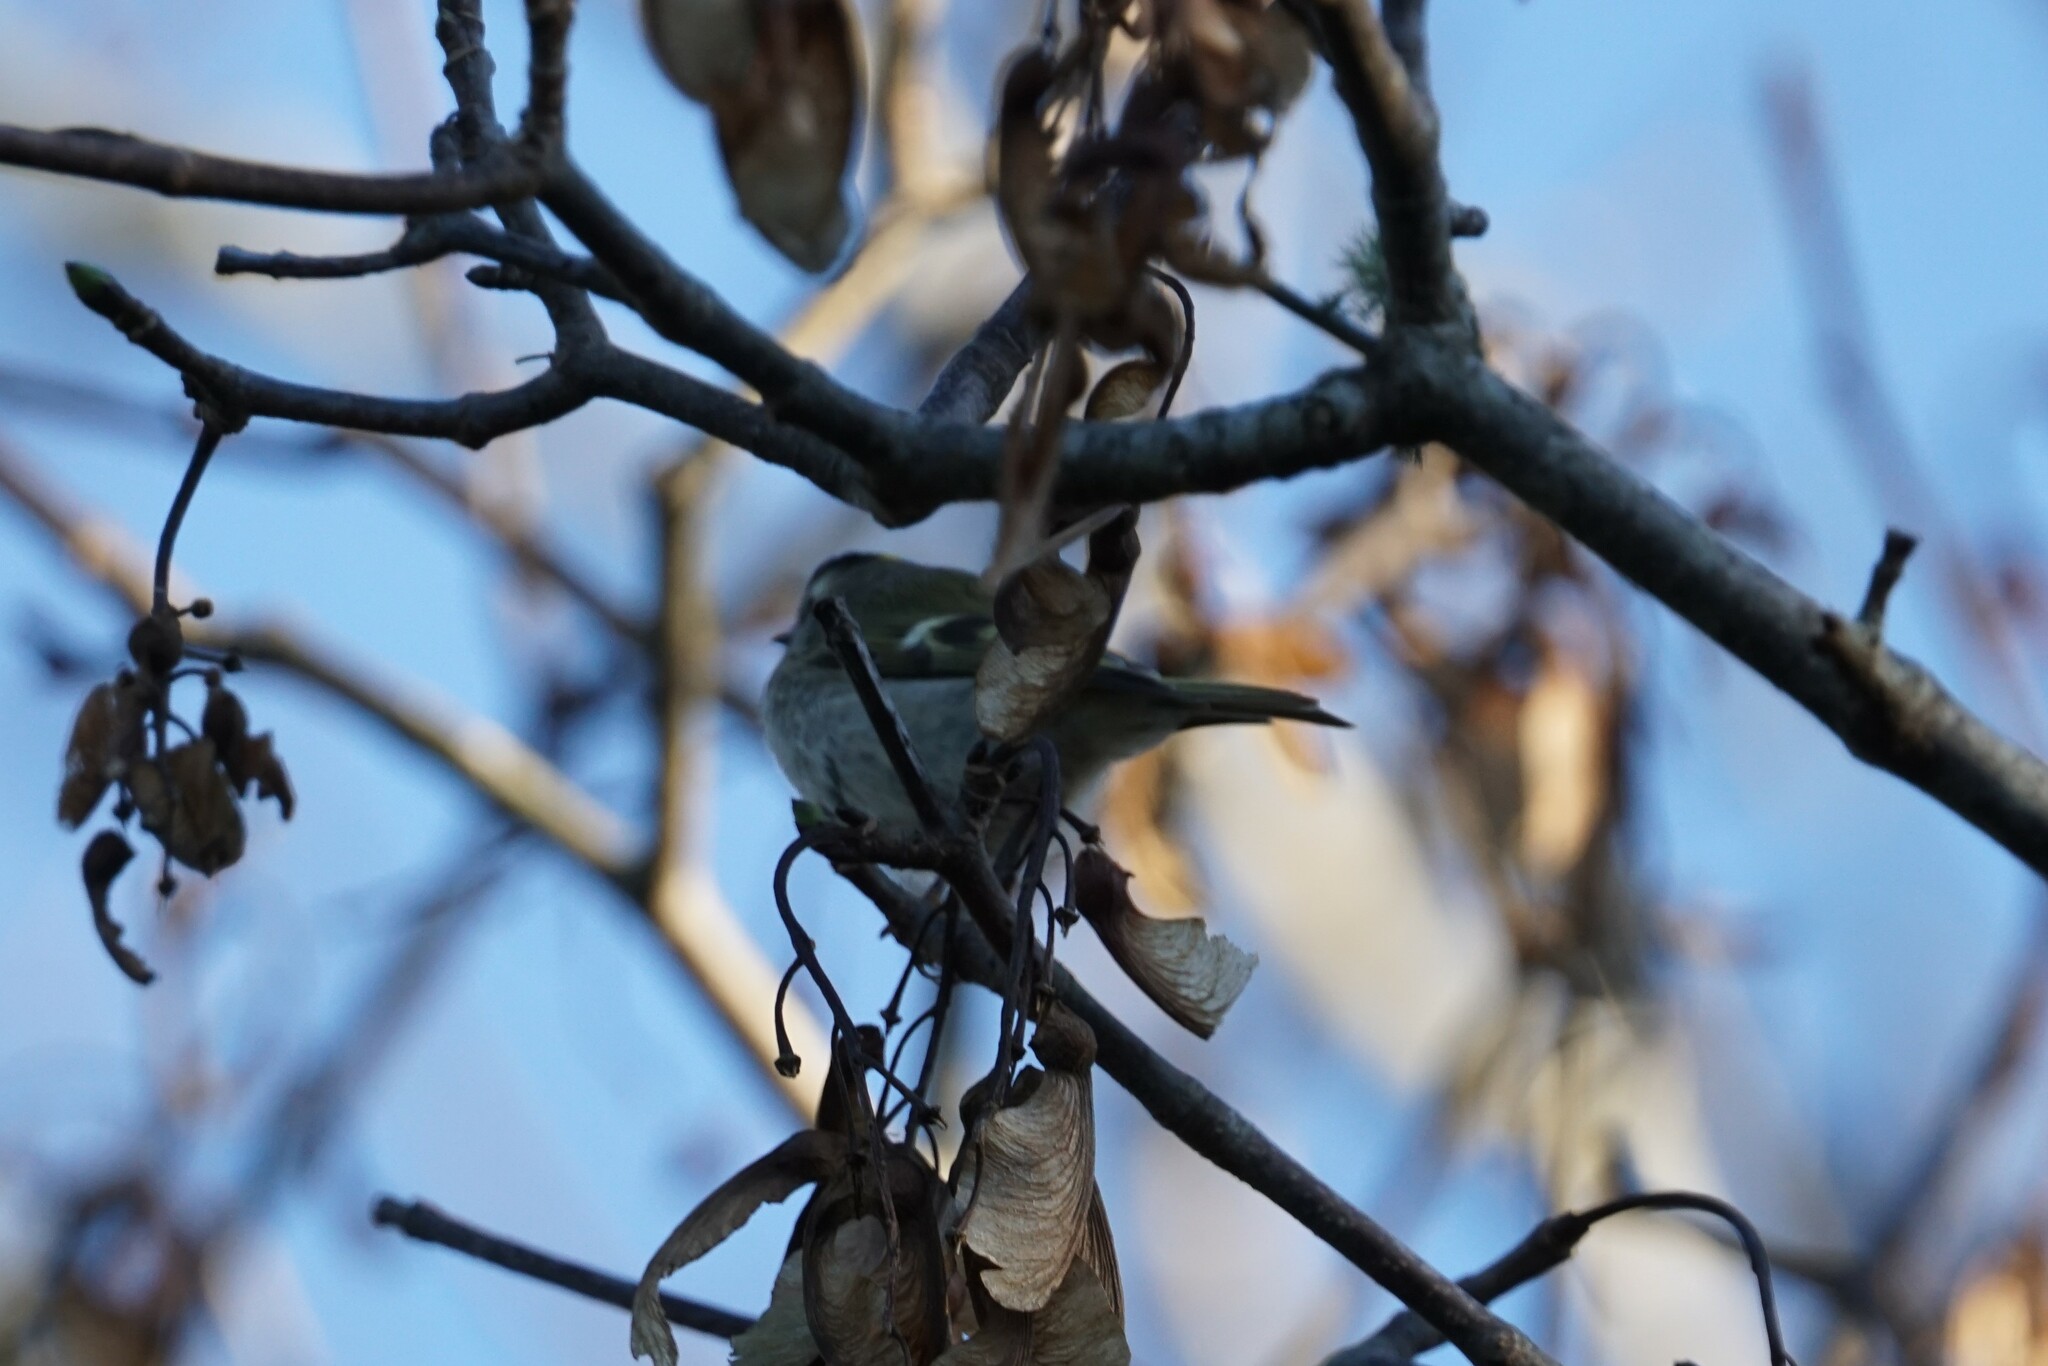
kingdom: Animalia
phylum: Chordata
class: Aves
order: Passeriformes
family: Regulidae
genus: Regulus
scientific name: Regulus satrapa
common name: Golden-crowned kinglet
